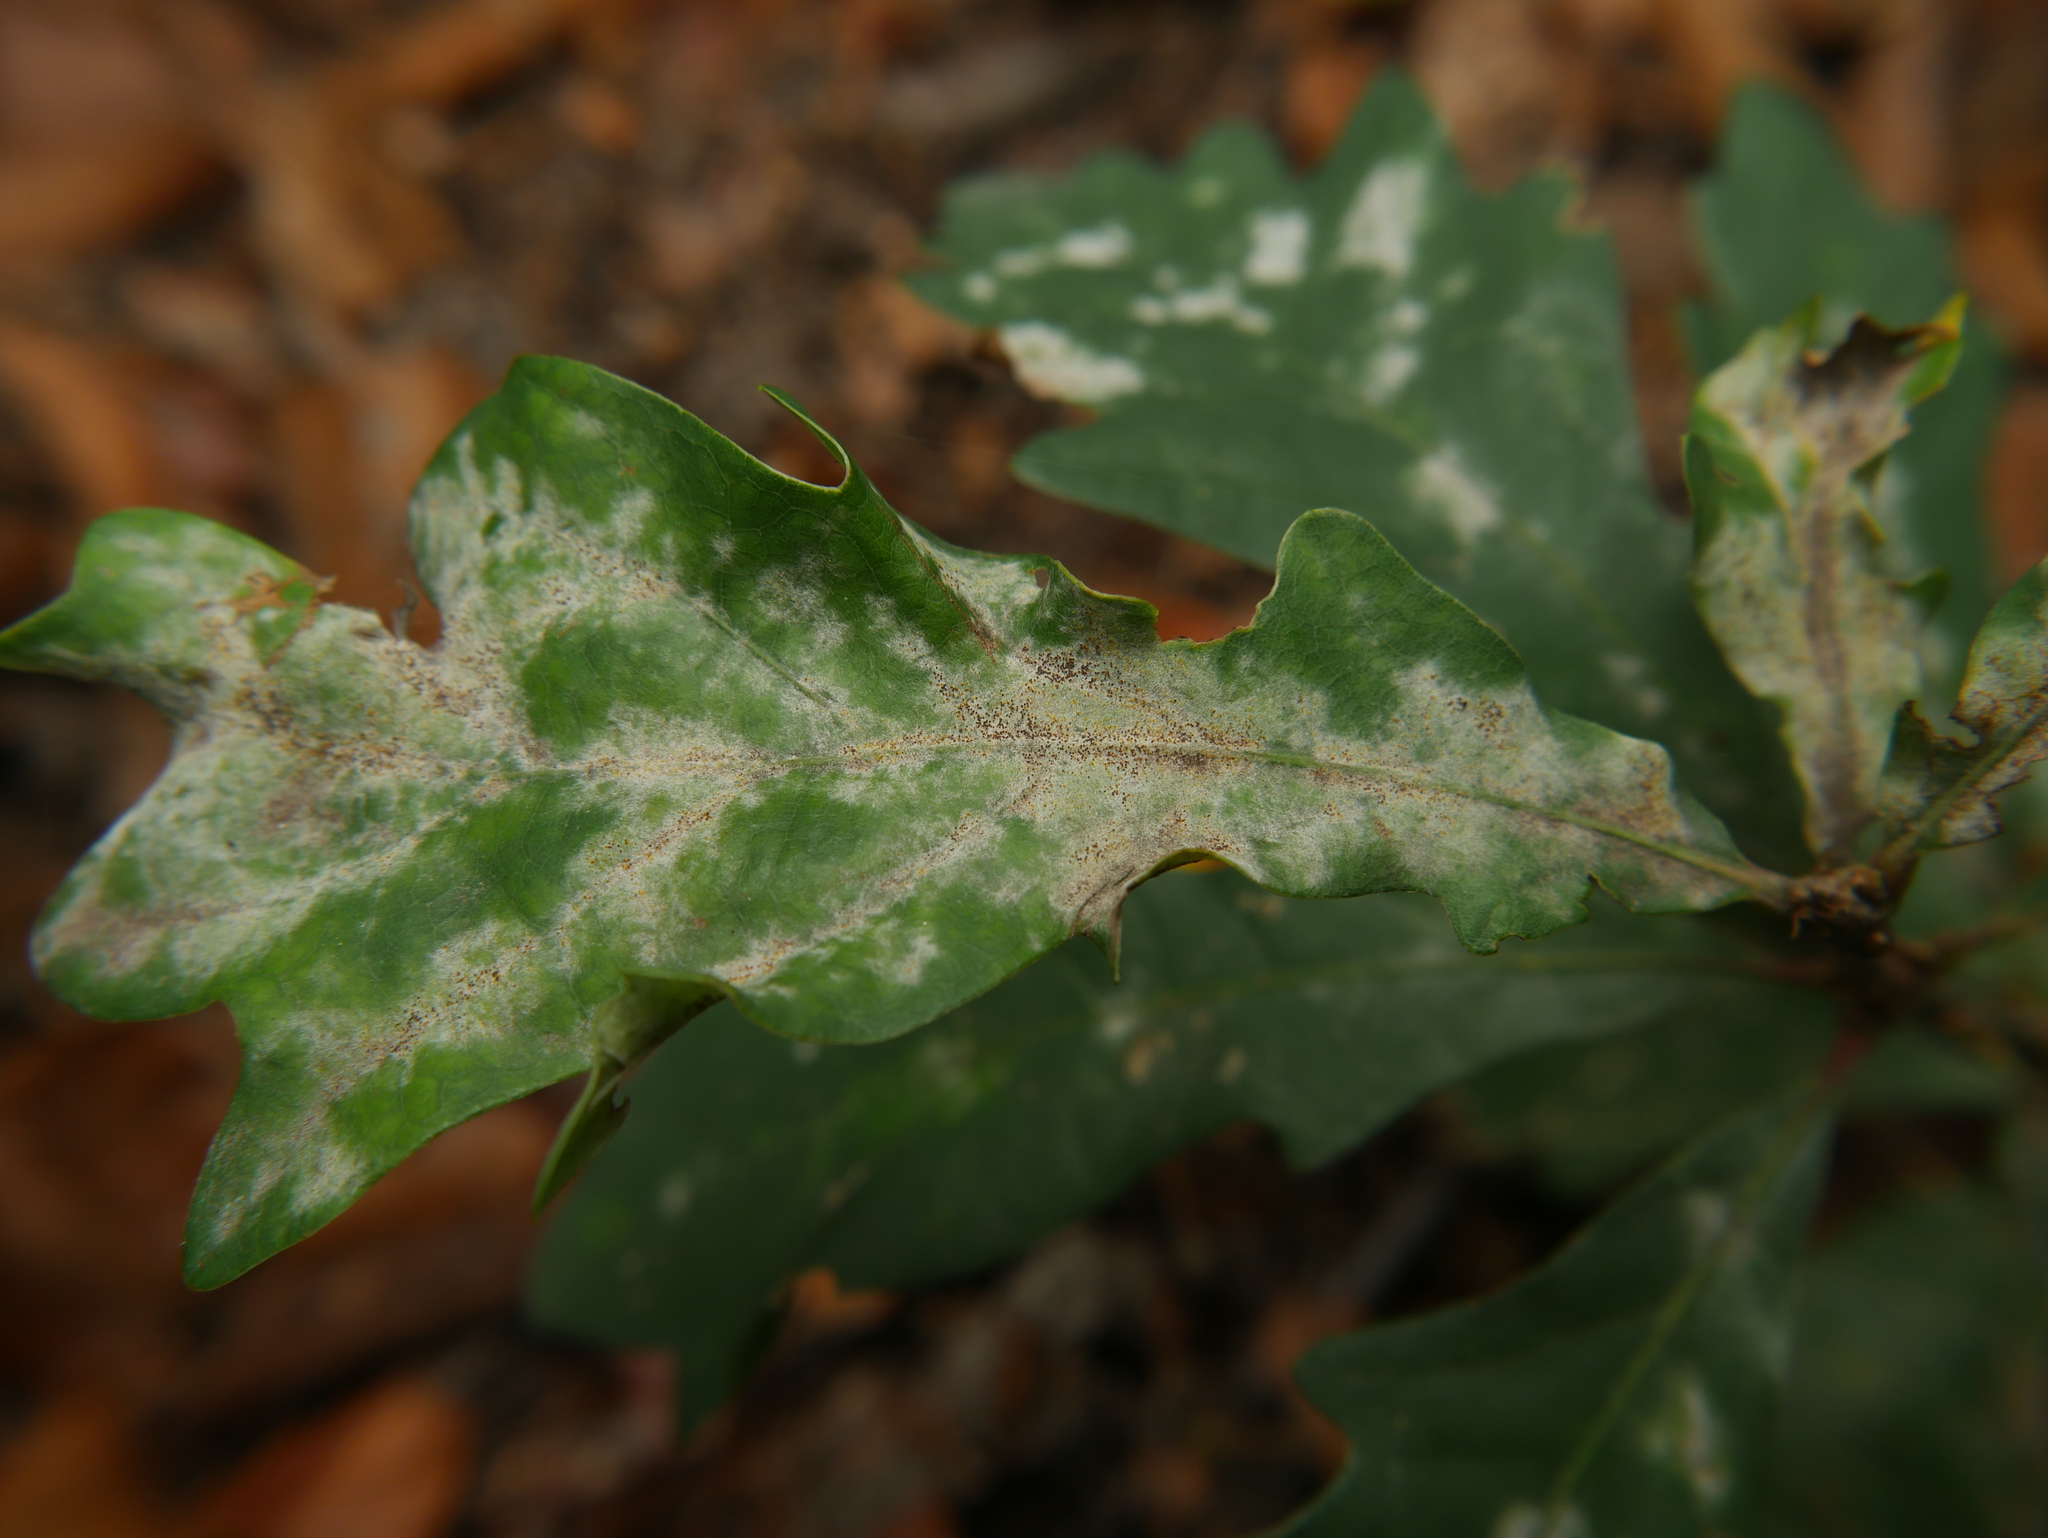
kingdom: Fungi
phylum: Ascomycota
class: Leotiomycetes
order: Helotiales
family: Erysiphaceae
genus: Erysiphe
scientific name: Erysiphe
